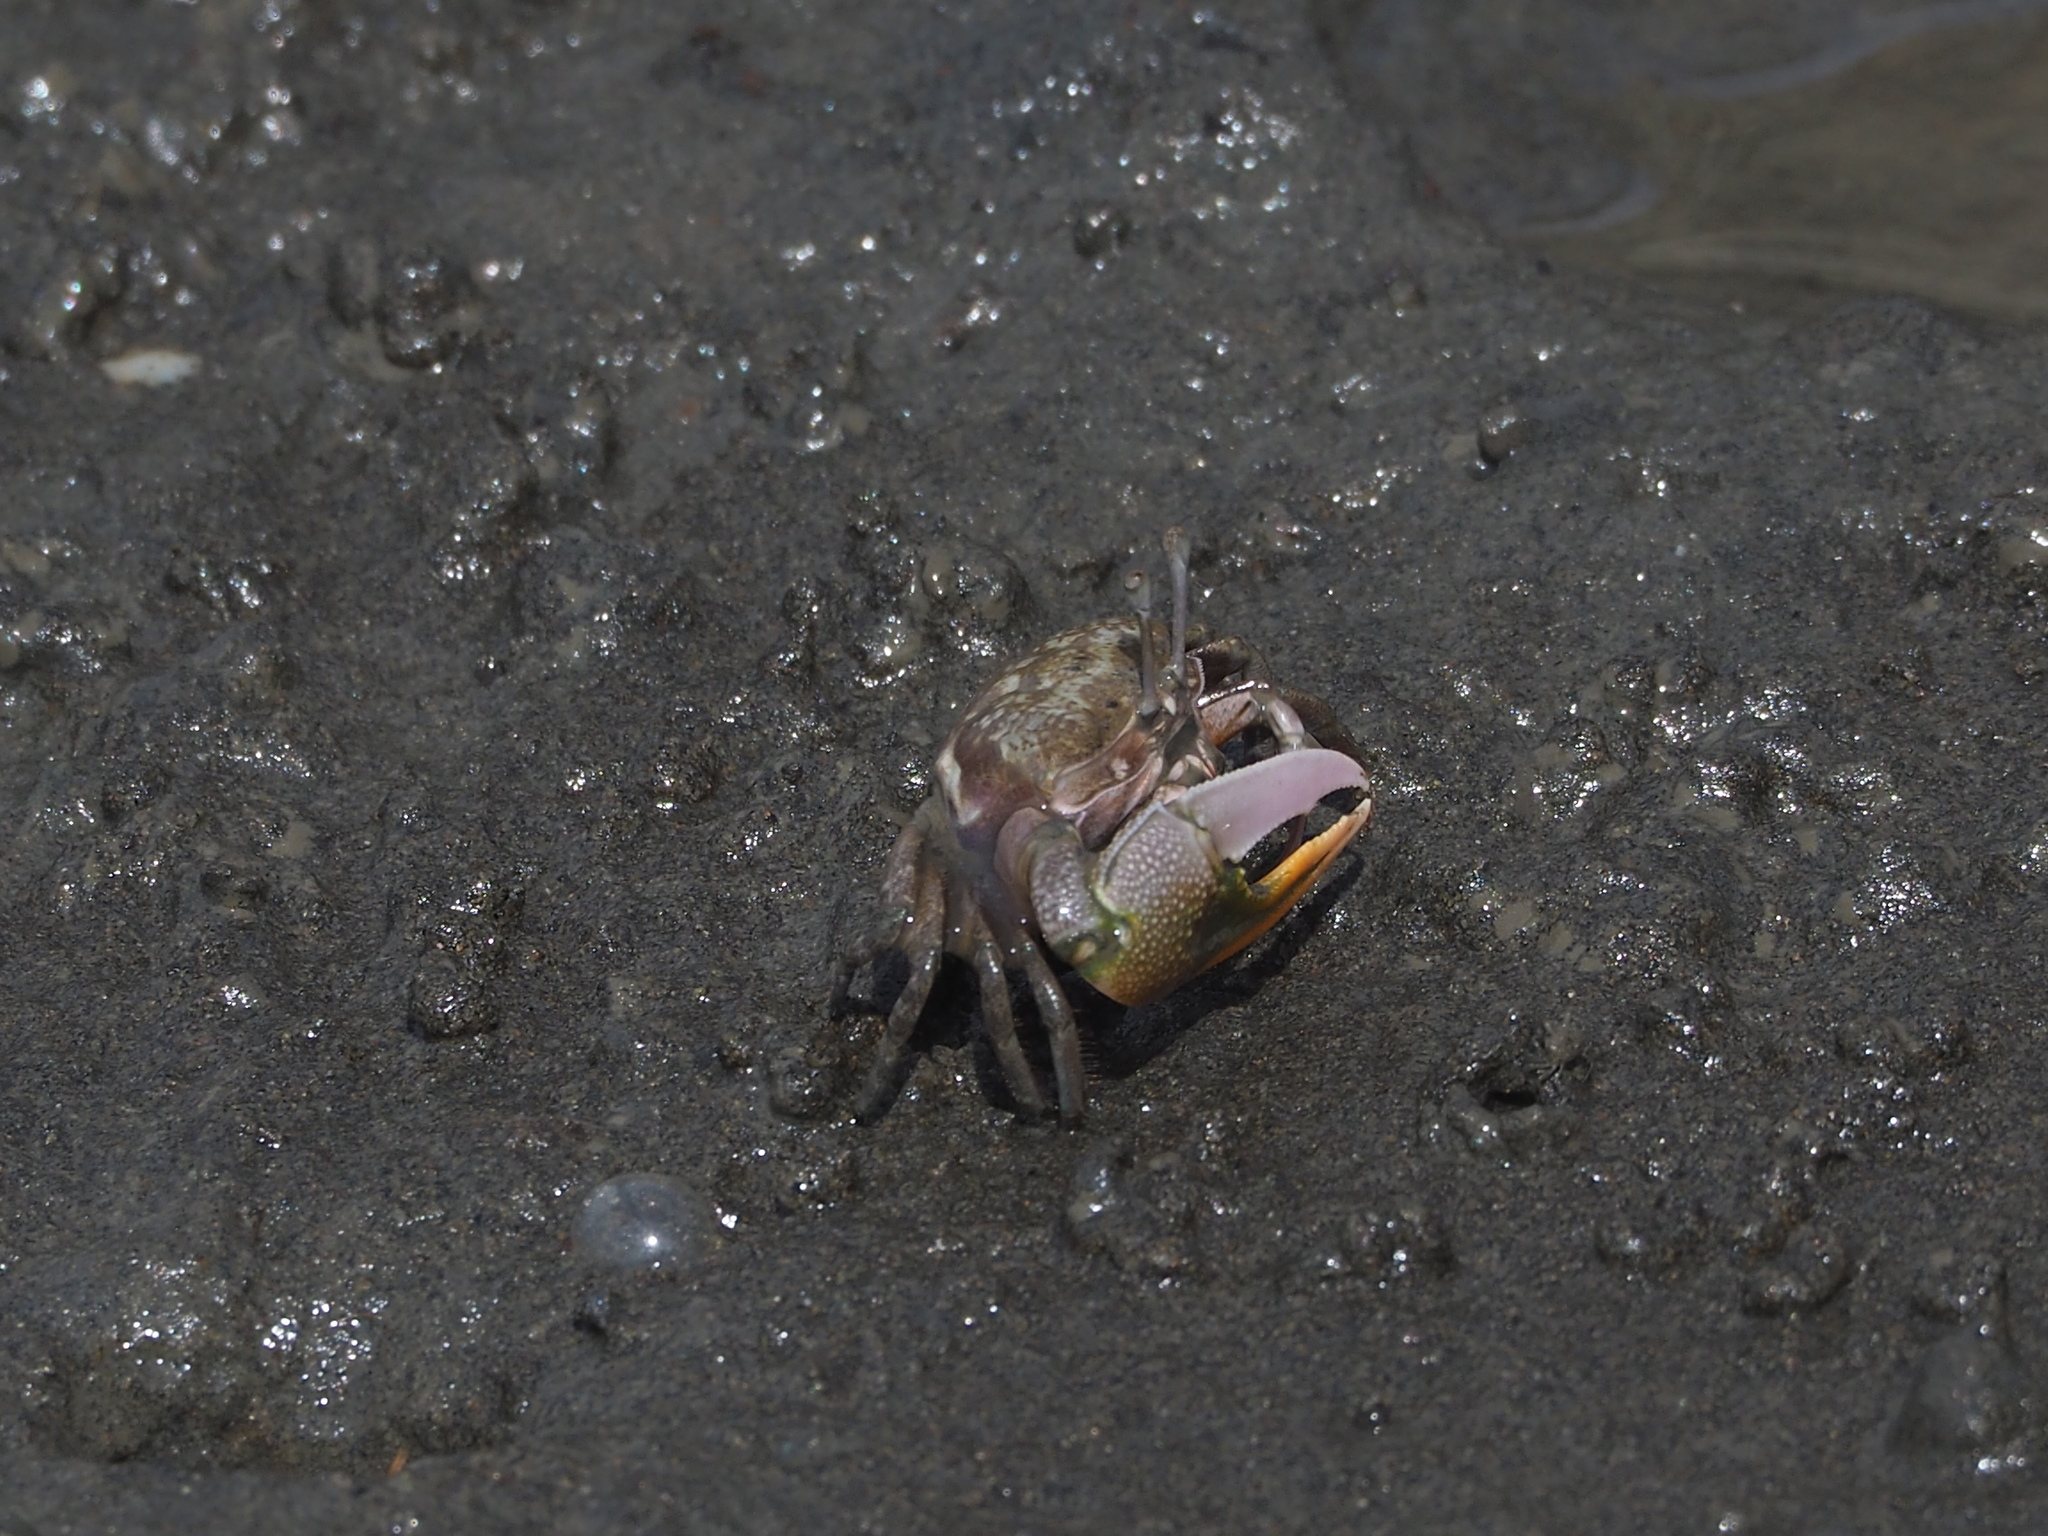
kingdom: Animalia
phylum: Arthropoda
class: Malacostraca
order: Decapoda
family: Ocypodidae
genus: Gelasimus
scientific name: Gelasimus borealis
